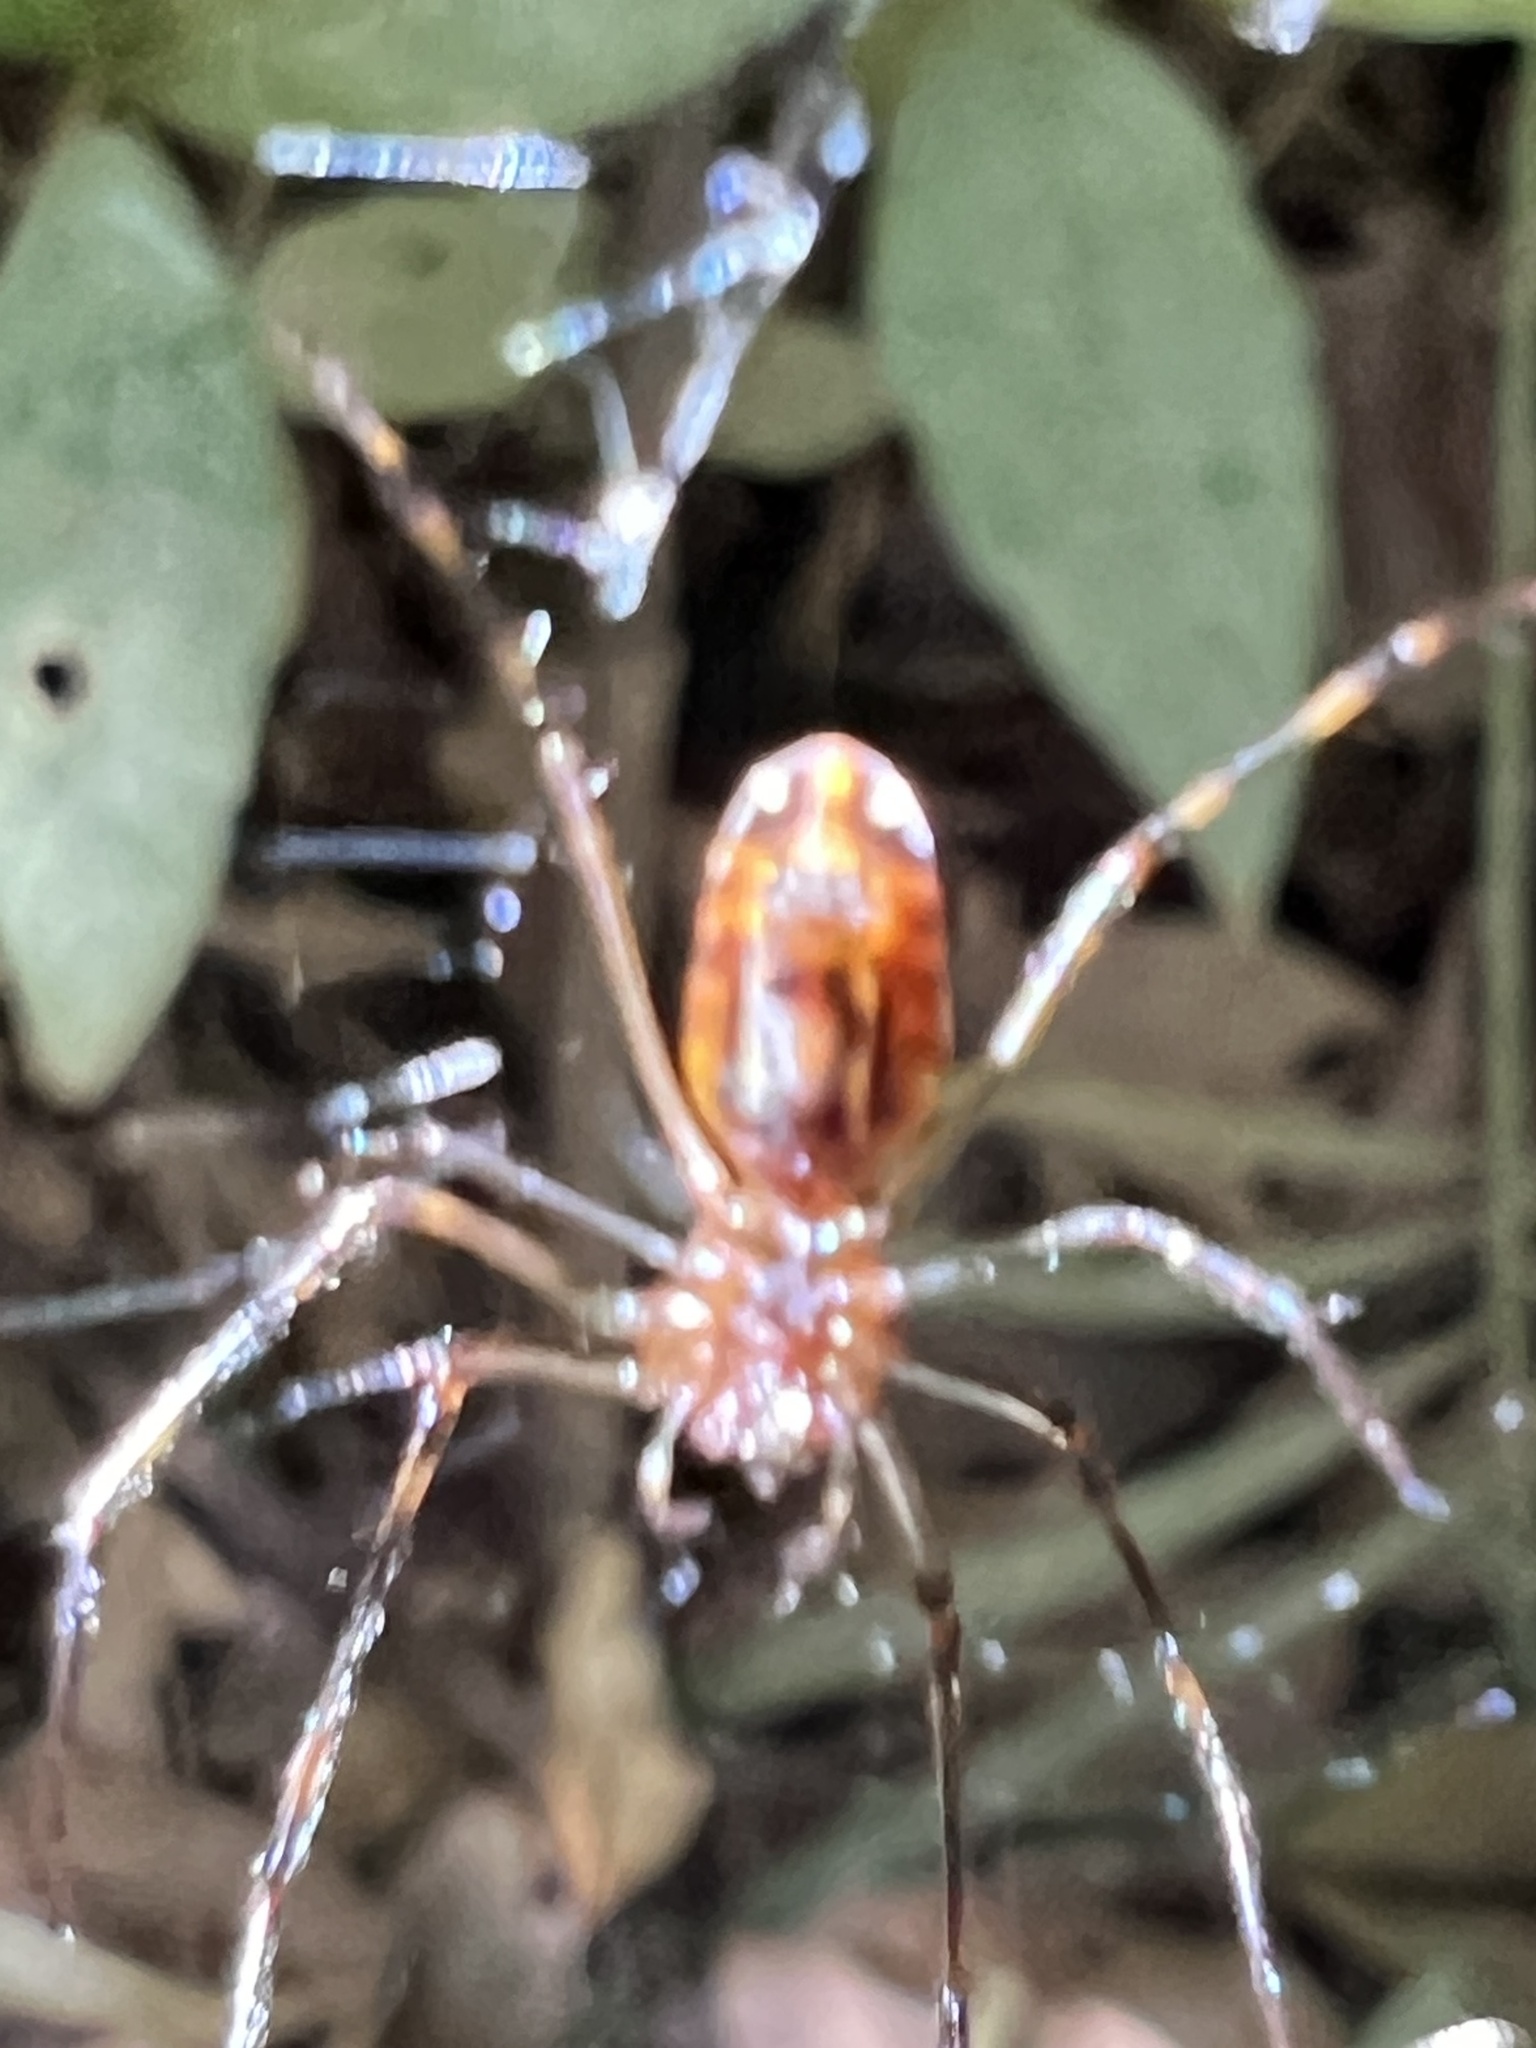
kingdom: Animalia
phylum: Arthropoda
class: Arachnida
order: Araneae
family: Tetragnathidae
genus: Leucauge
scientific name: Leucauge granulata
